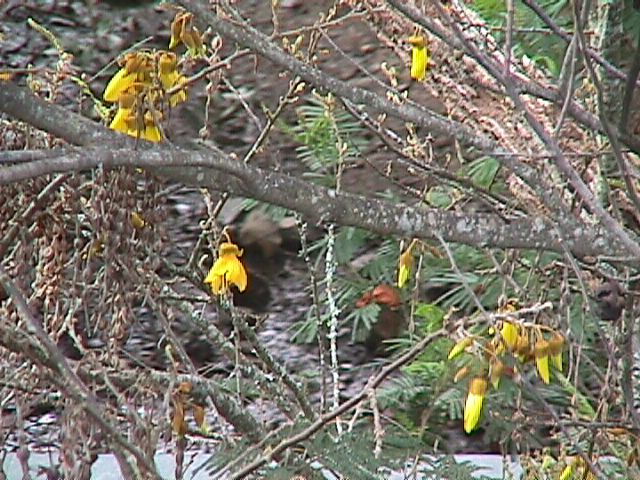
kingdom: Plantae
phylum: Tracheophyta
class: Magnoliopsida
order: Fabales
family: Fabaceae
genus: Sophora
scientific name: Sophora chathamica
